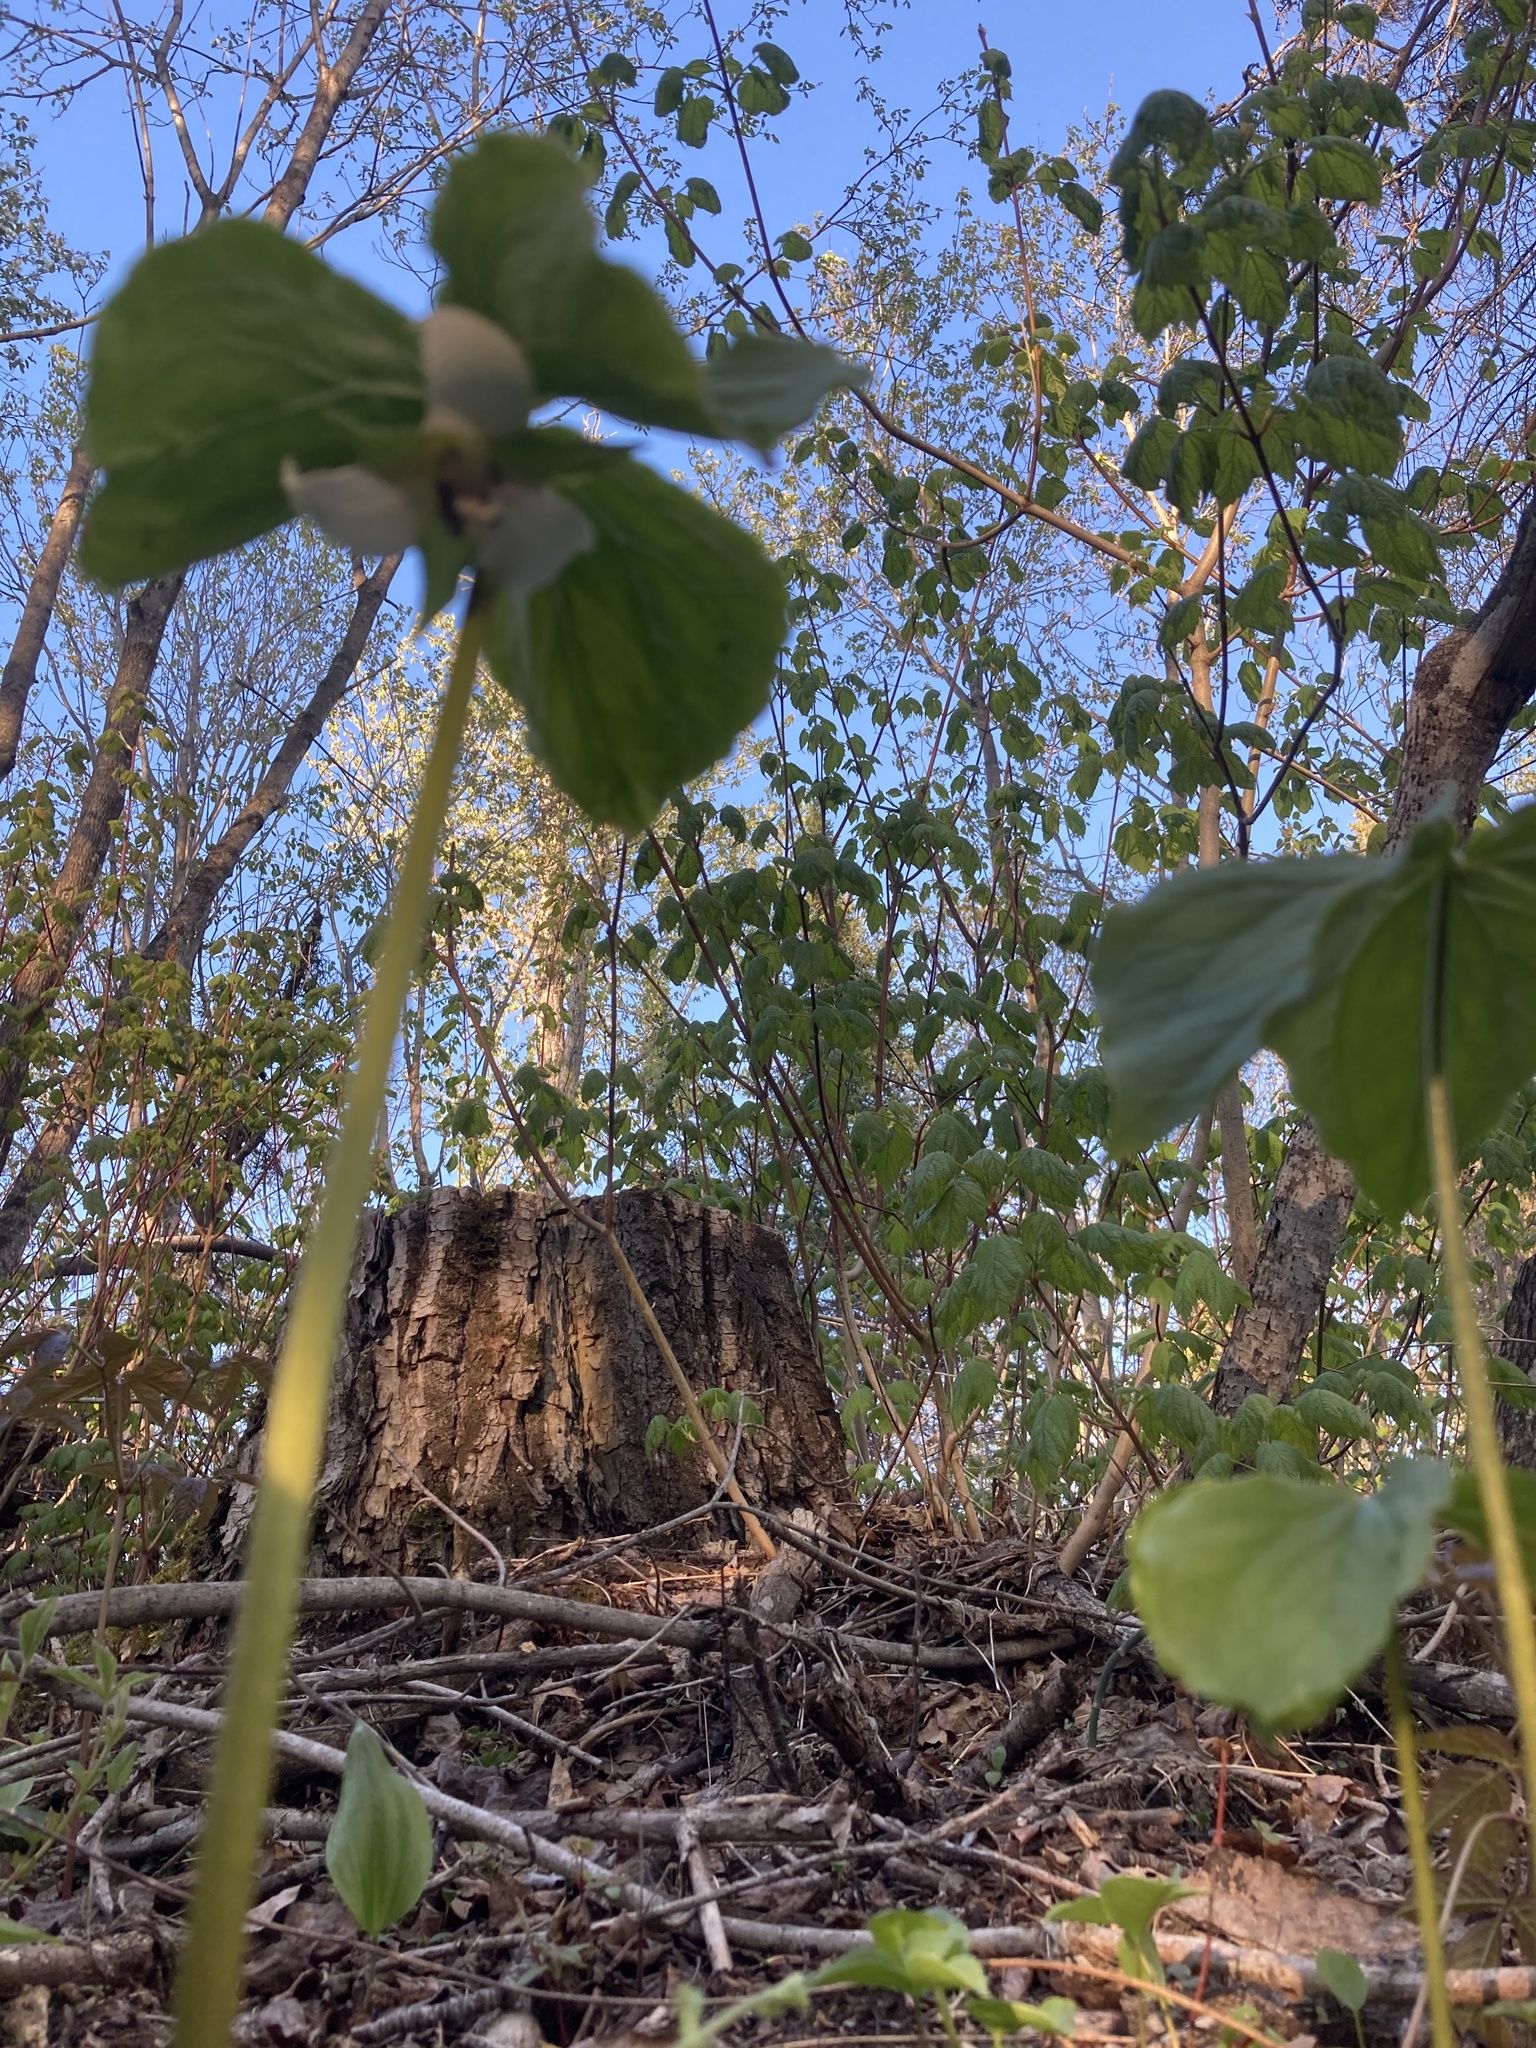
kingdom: Plantae
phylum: Tracheophyta
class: Liliopsida
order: Liliales
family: Melanthiaceae
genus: Trillium
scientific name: Trillium cernuum
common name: Nodding trillium
